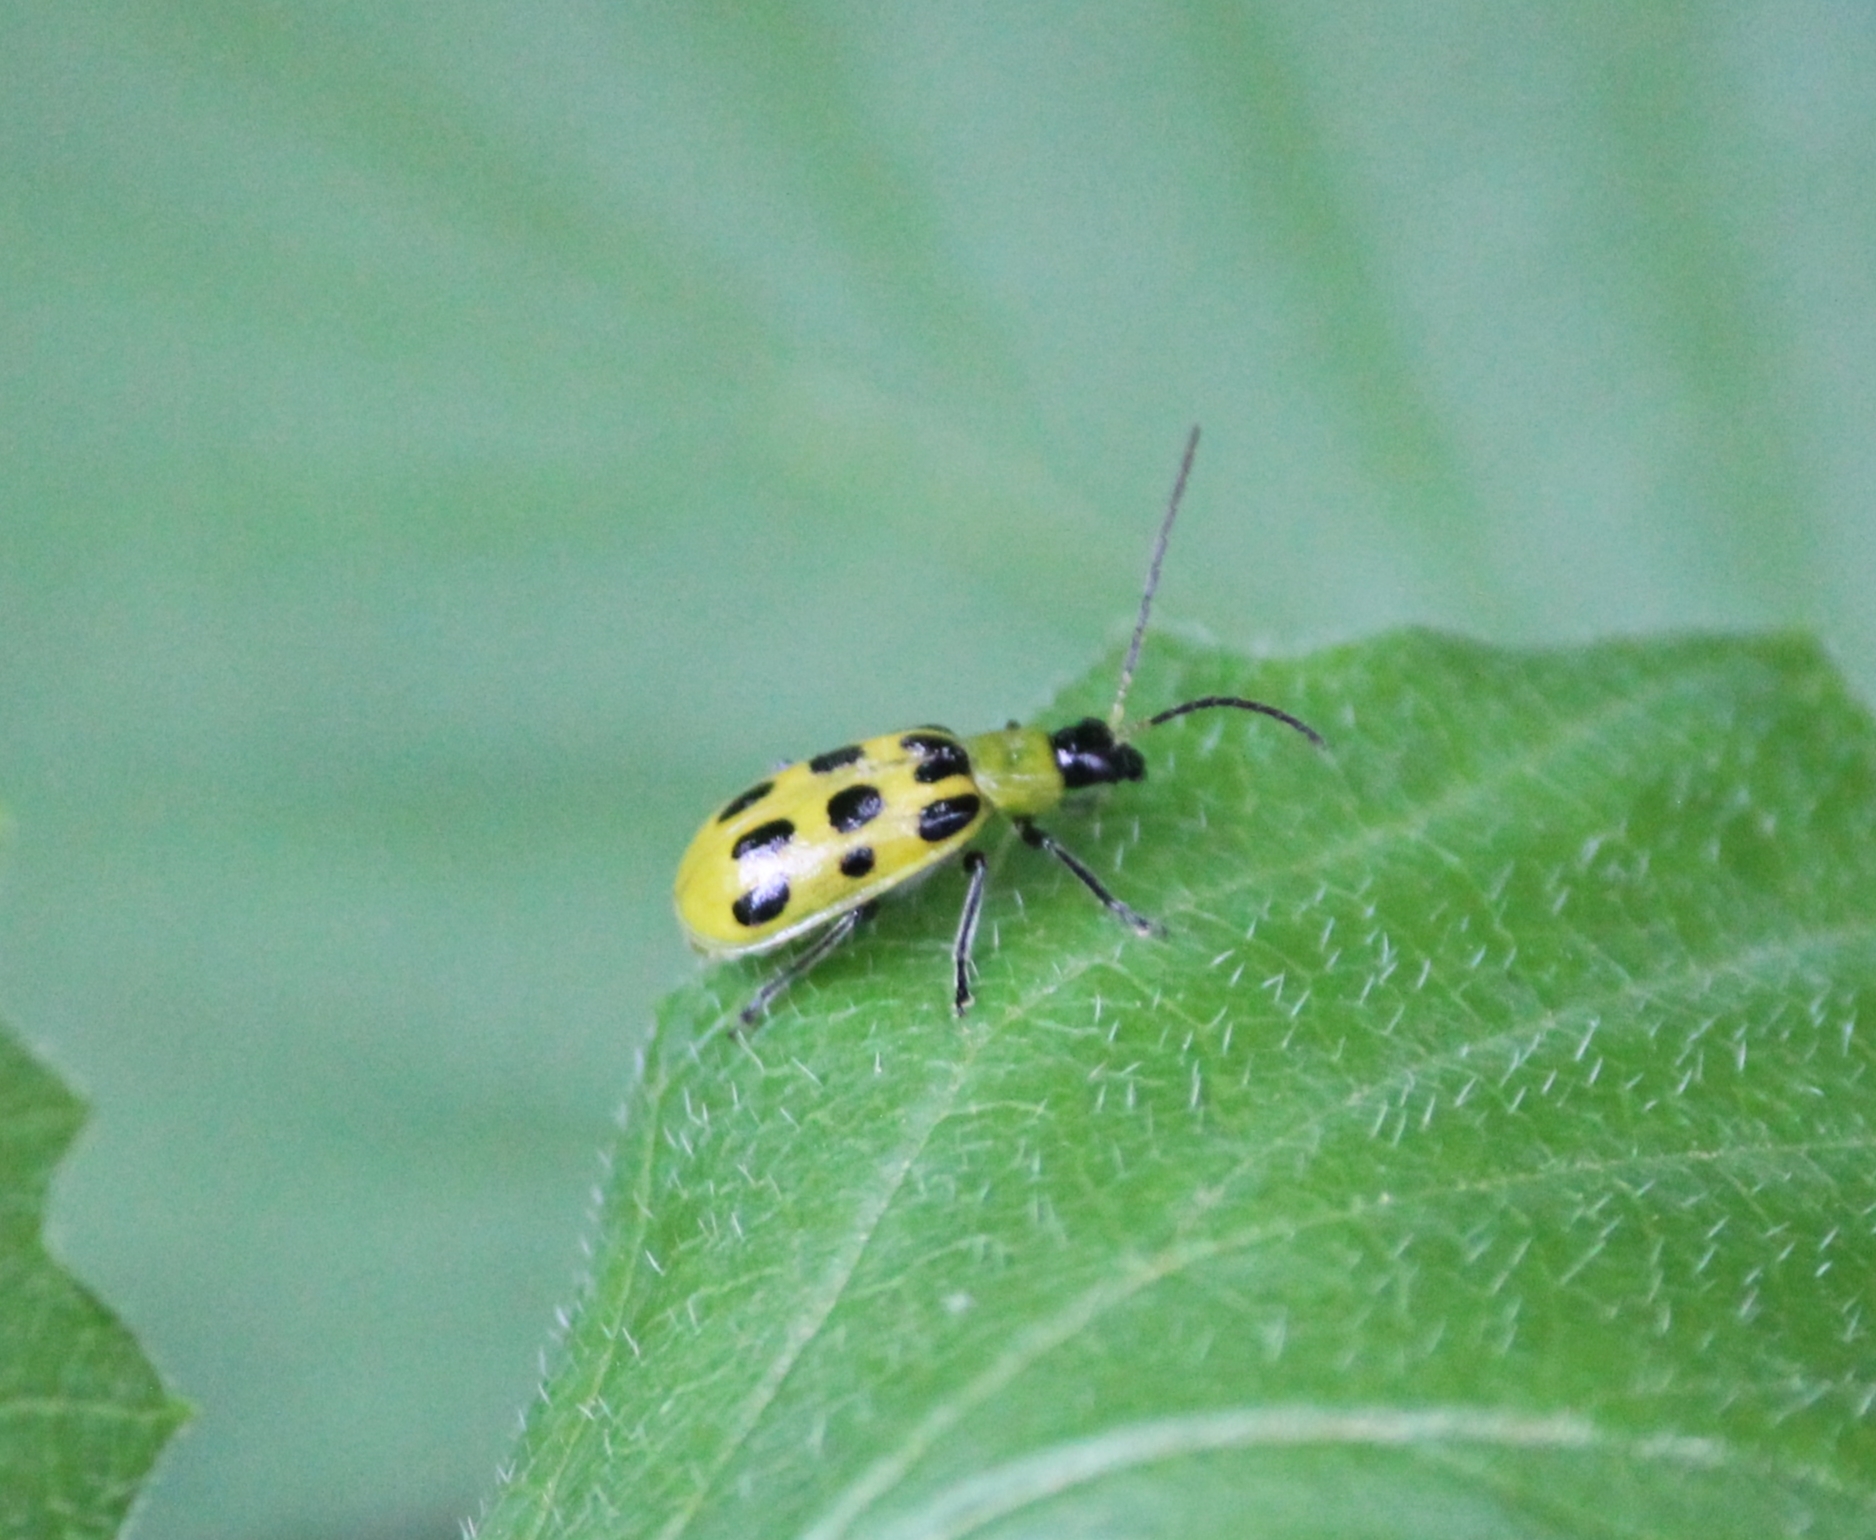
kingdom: Animalia
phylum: Arthropoda
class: Insecta
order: Coleoptera
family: Chrysomelidae
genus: Diabrotica
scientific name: Diabrotica undecimpunctata
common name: Spotted cucumber beetle
